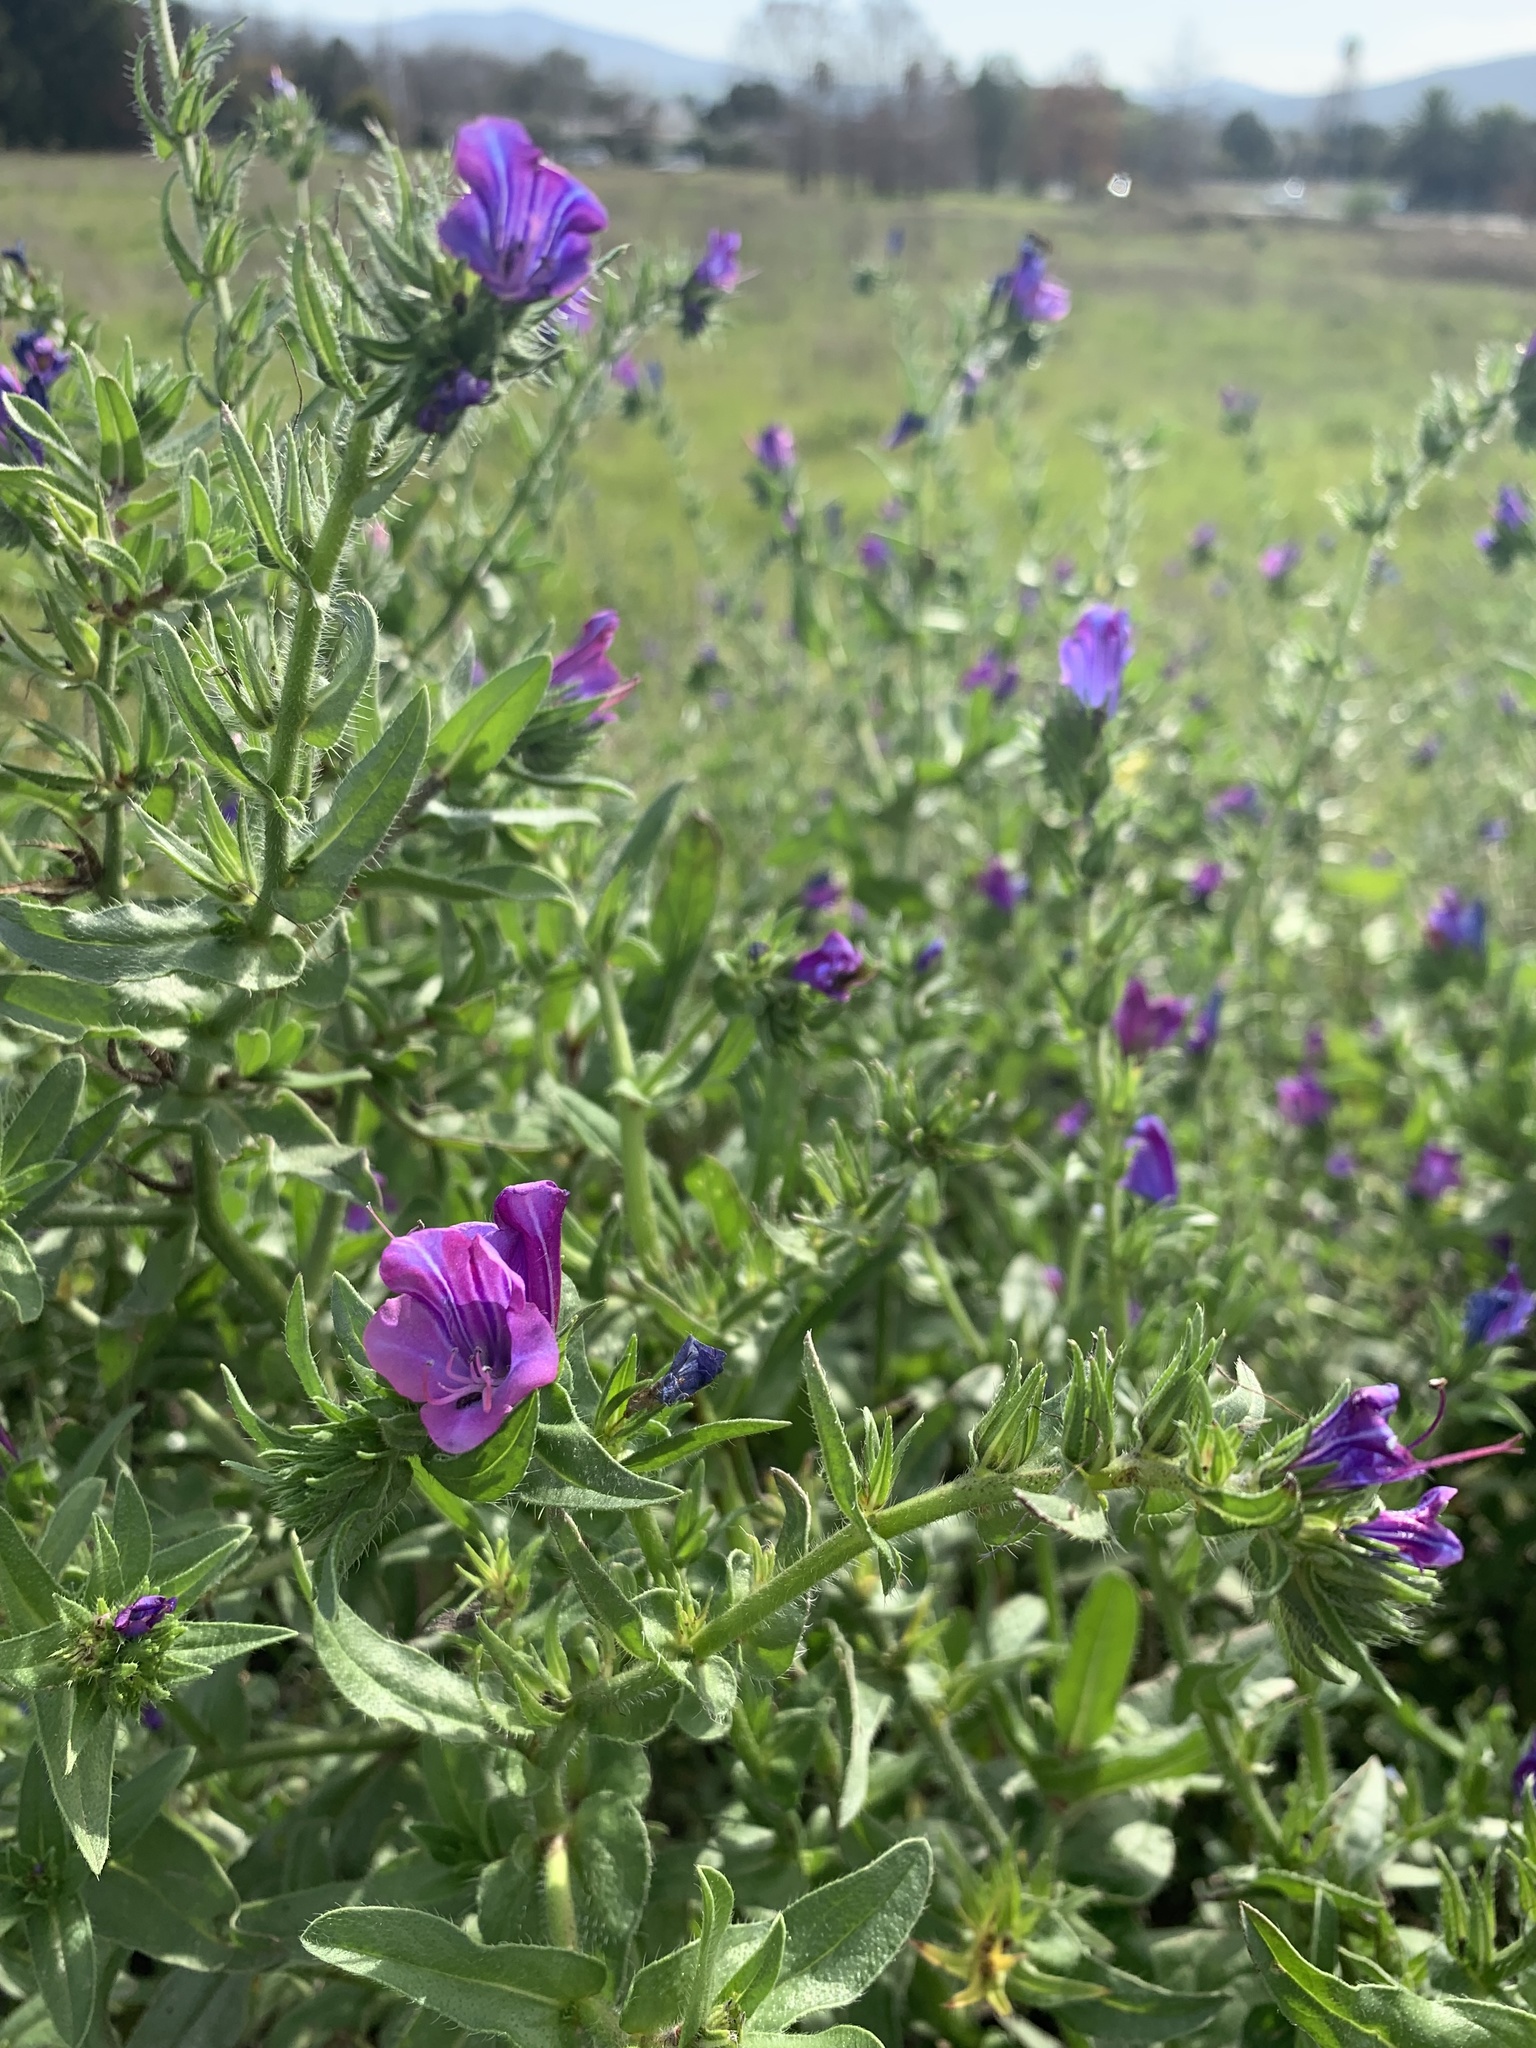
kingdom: Plantae
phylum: Tracheophyta
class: Magnoliopsida
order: Boraginales
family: Boraginaceae
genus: Echium
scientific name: Echium plantagineum
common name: Purple viper's-bugloss
